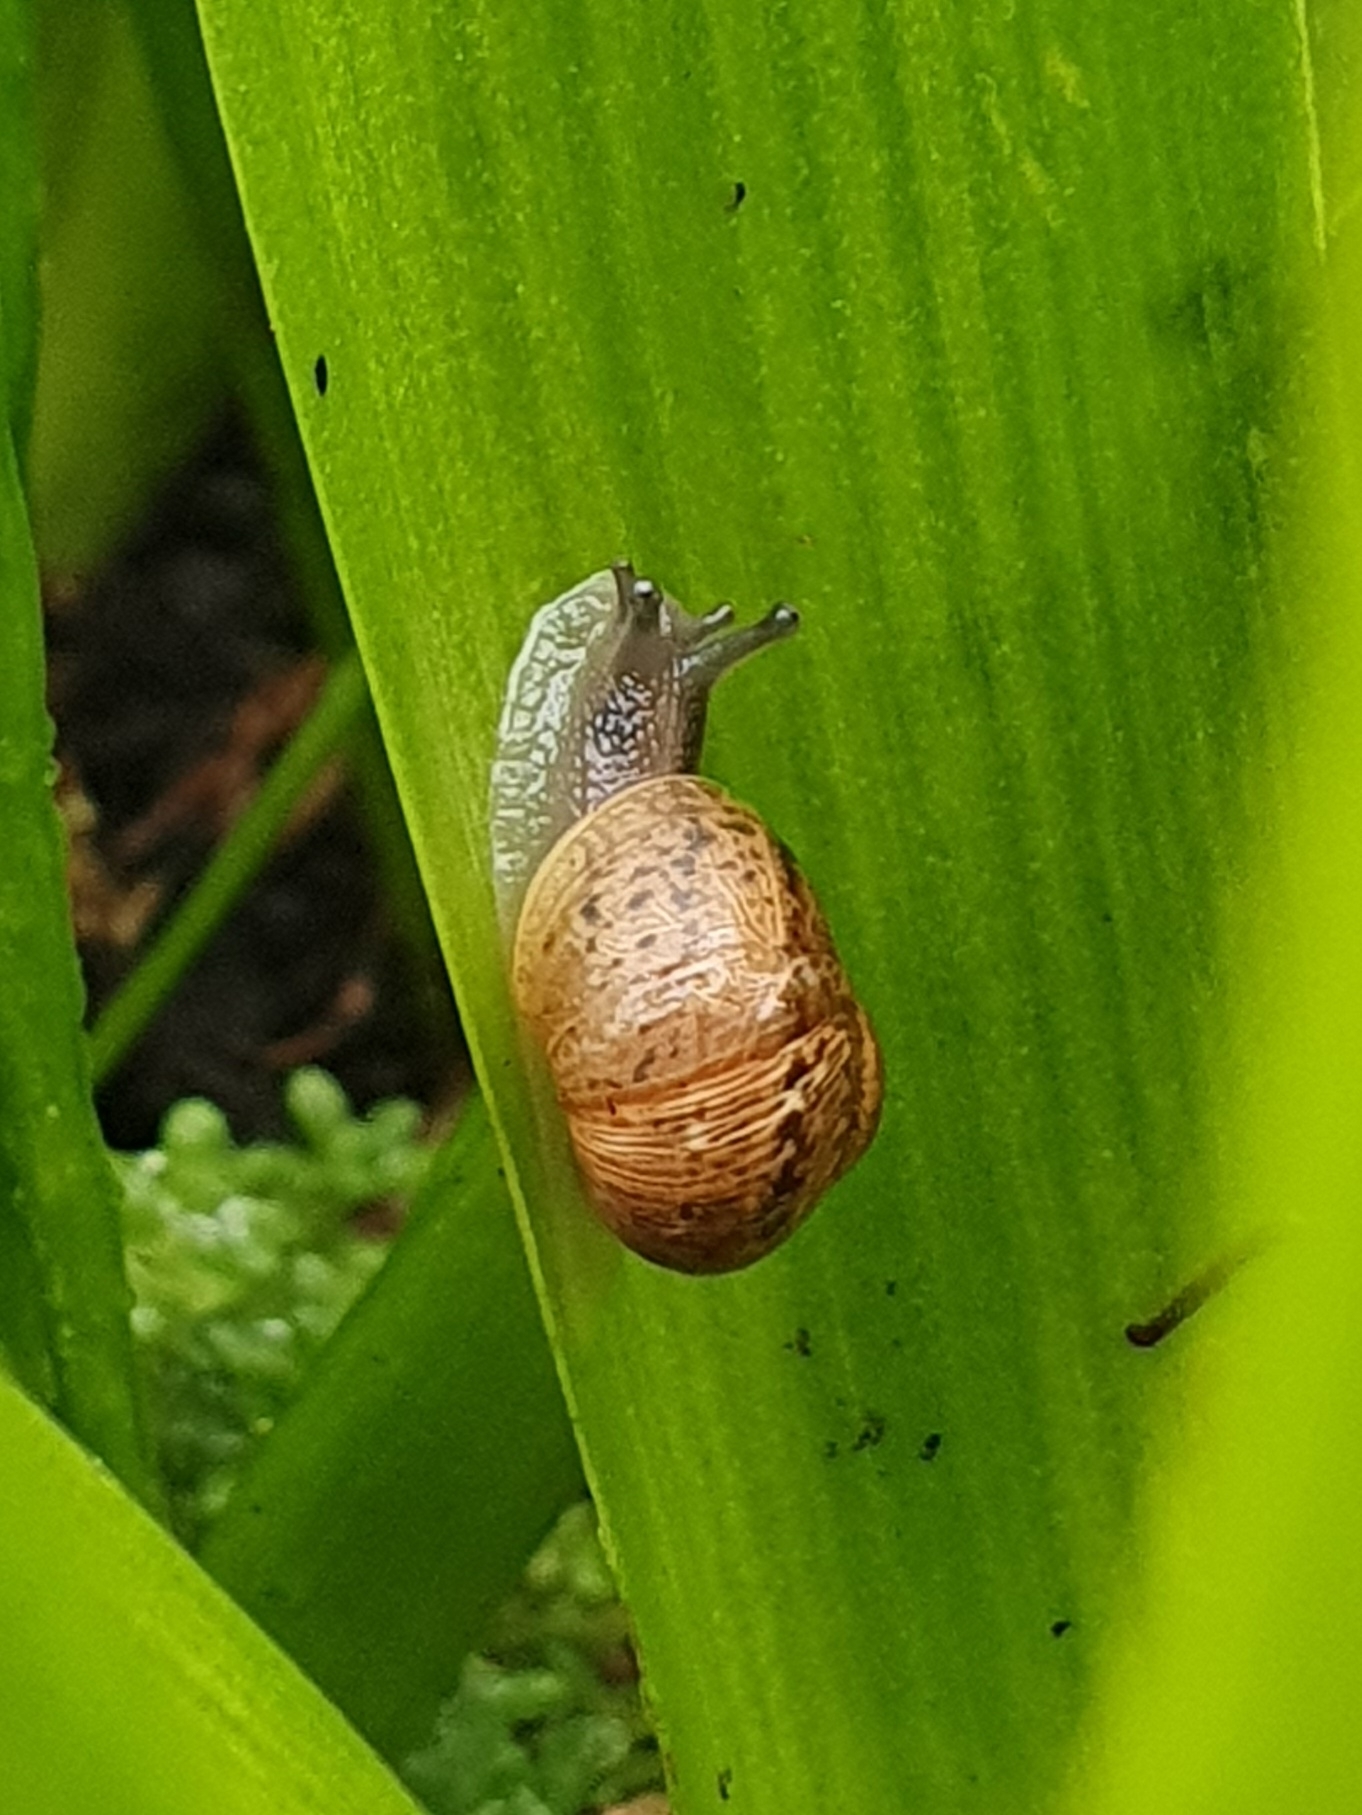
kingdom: Animalia
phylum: Mollusca
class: Gastropoda
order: Stylommatophora
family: Helicidae
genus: Cornu
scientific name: Cornu aspersum
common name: Brown garden snail
